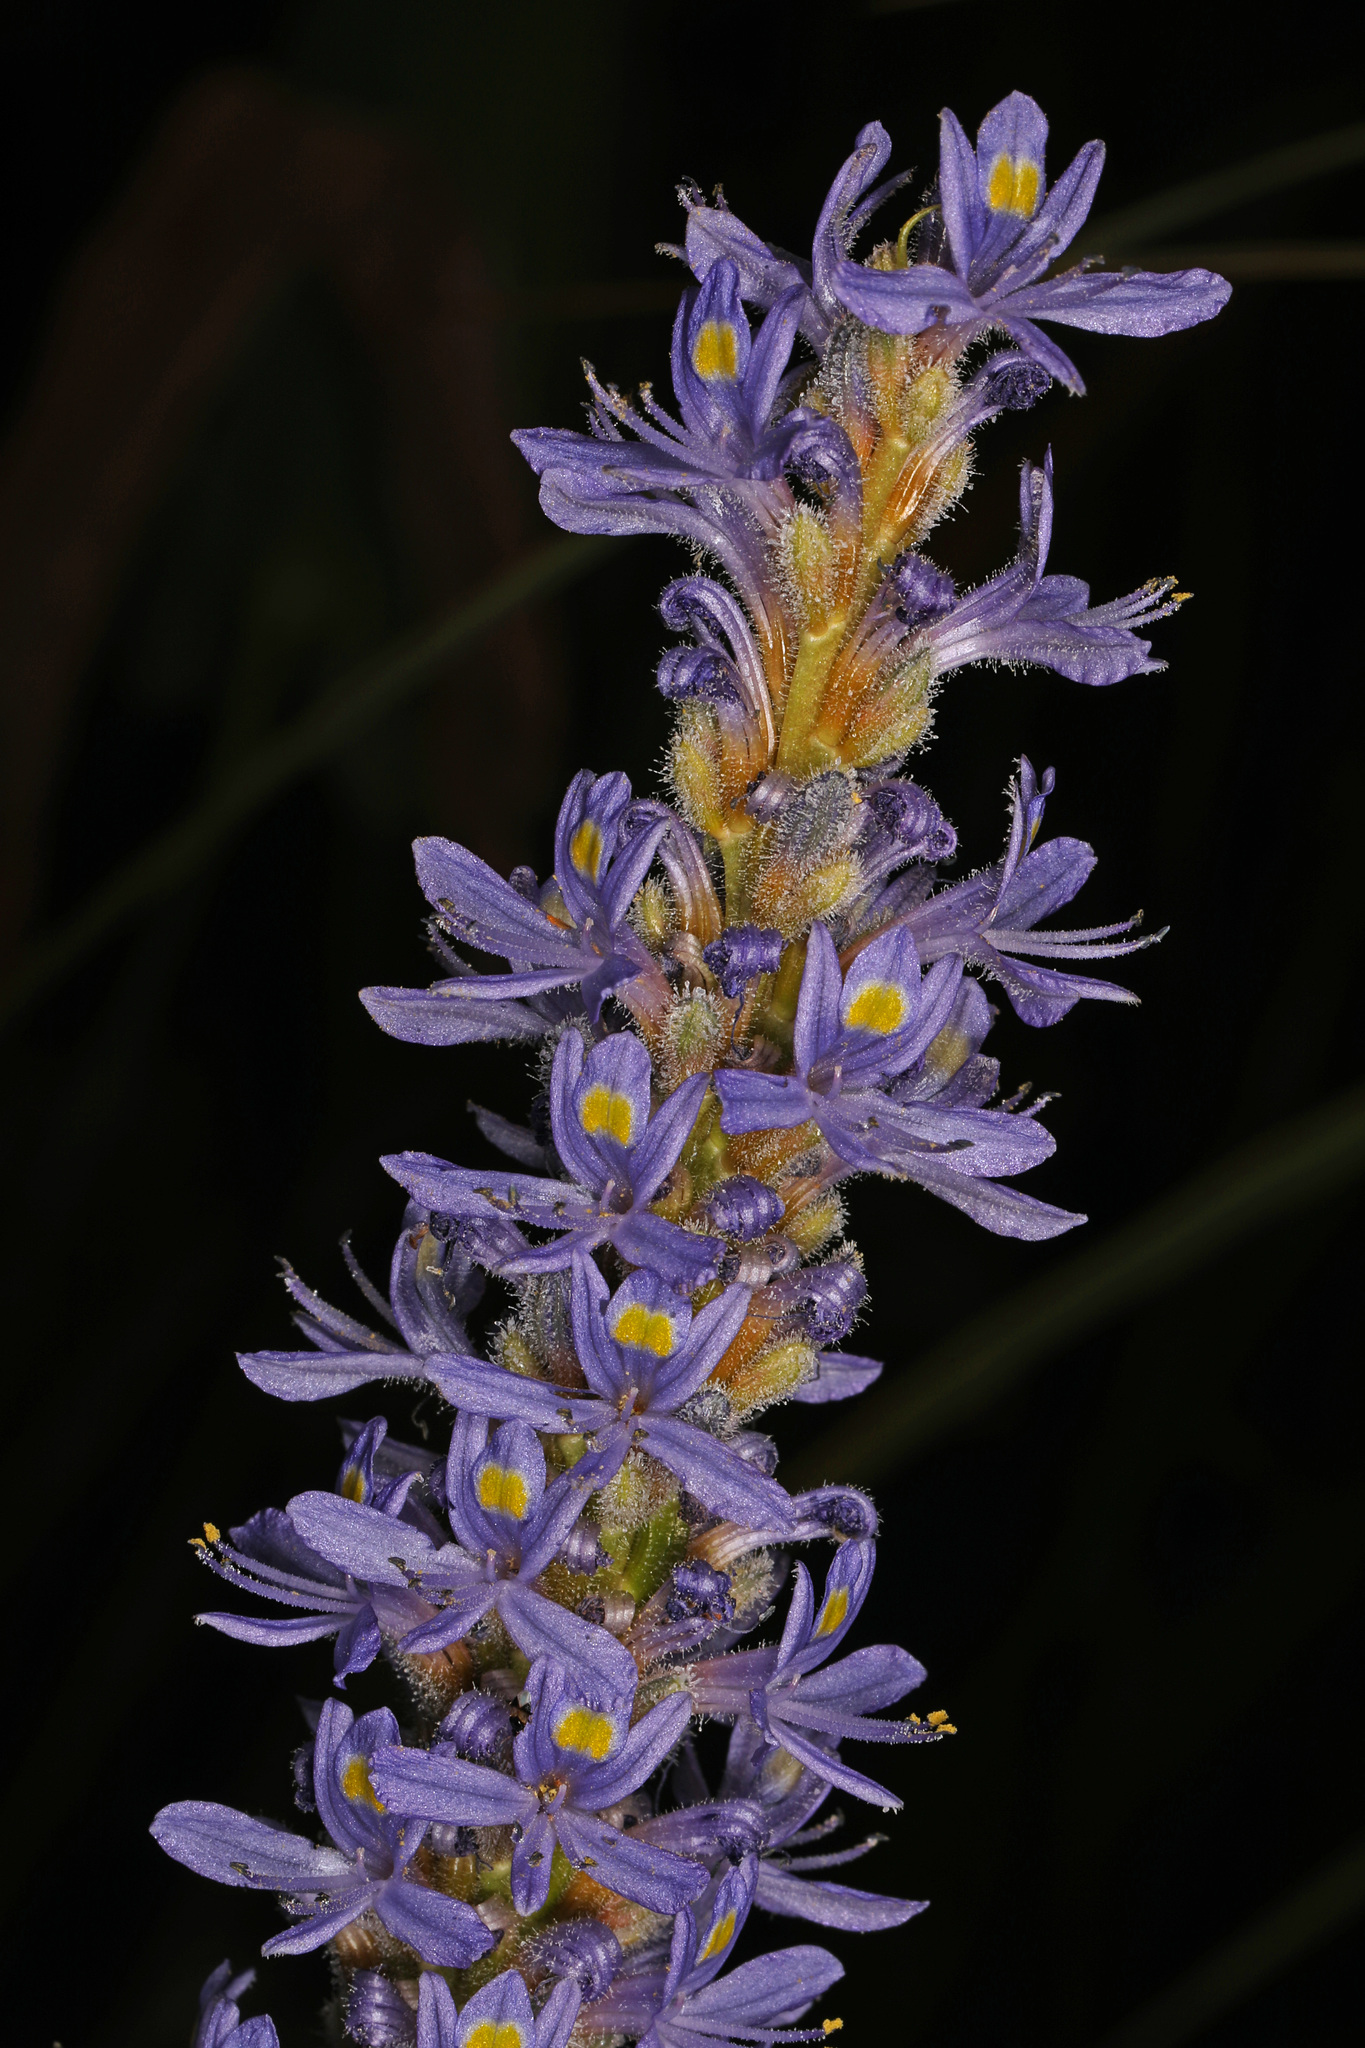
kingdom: Plantae
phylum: Tracheophyta
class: Liliopsida
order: Commelinales
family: Pontederiaceae
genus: Pontederia
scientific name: Pontederia cordata
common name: Pickerelweed
